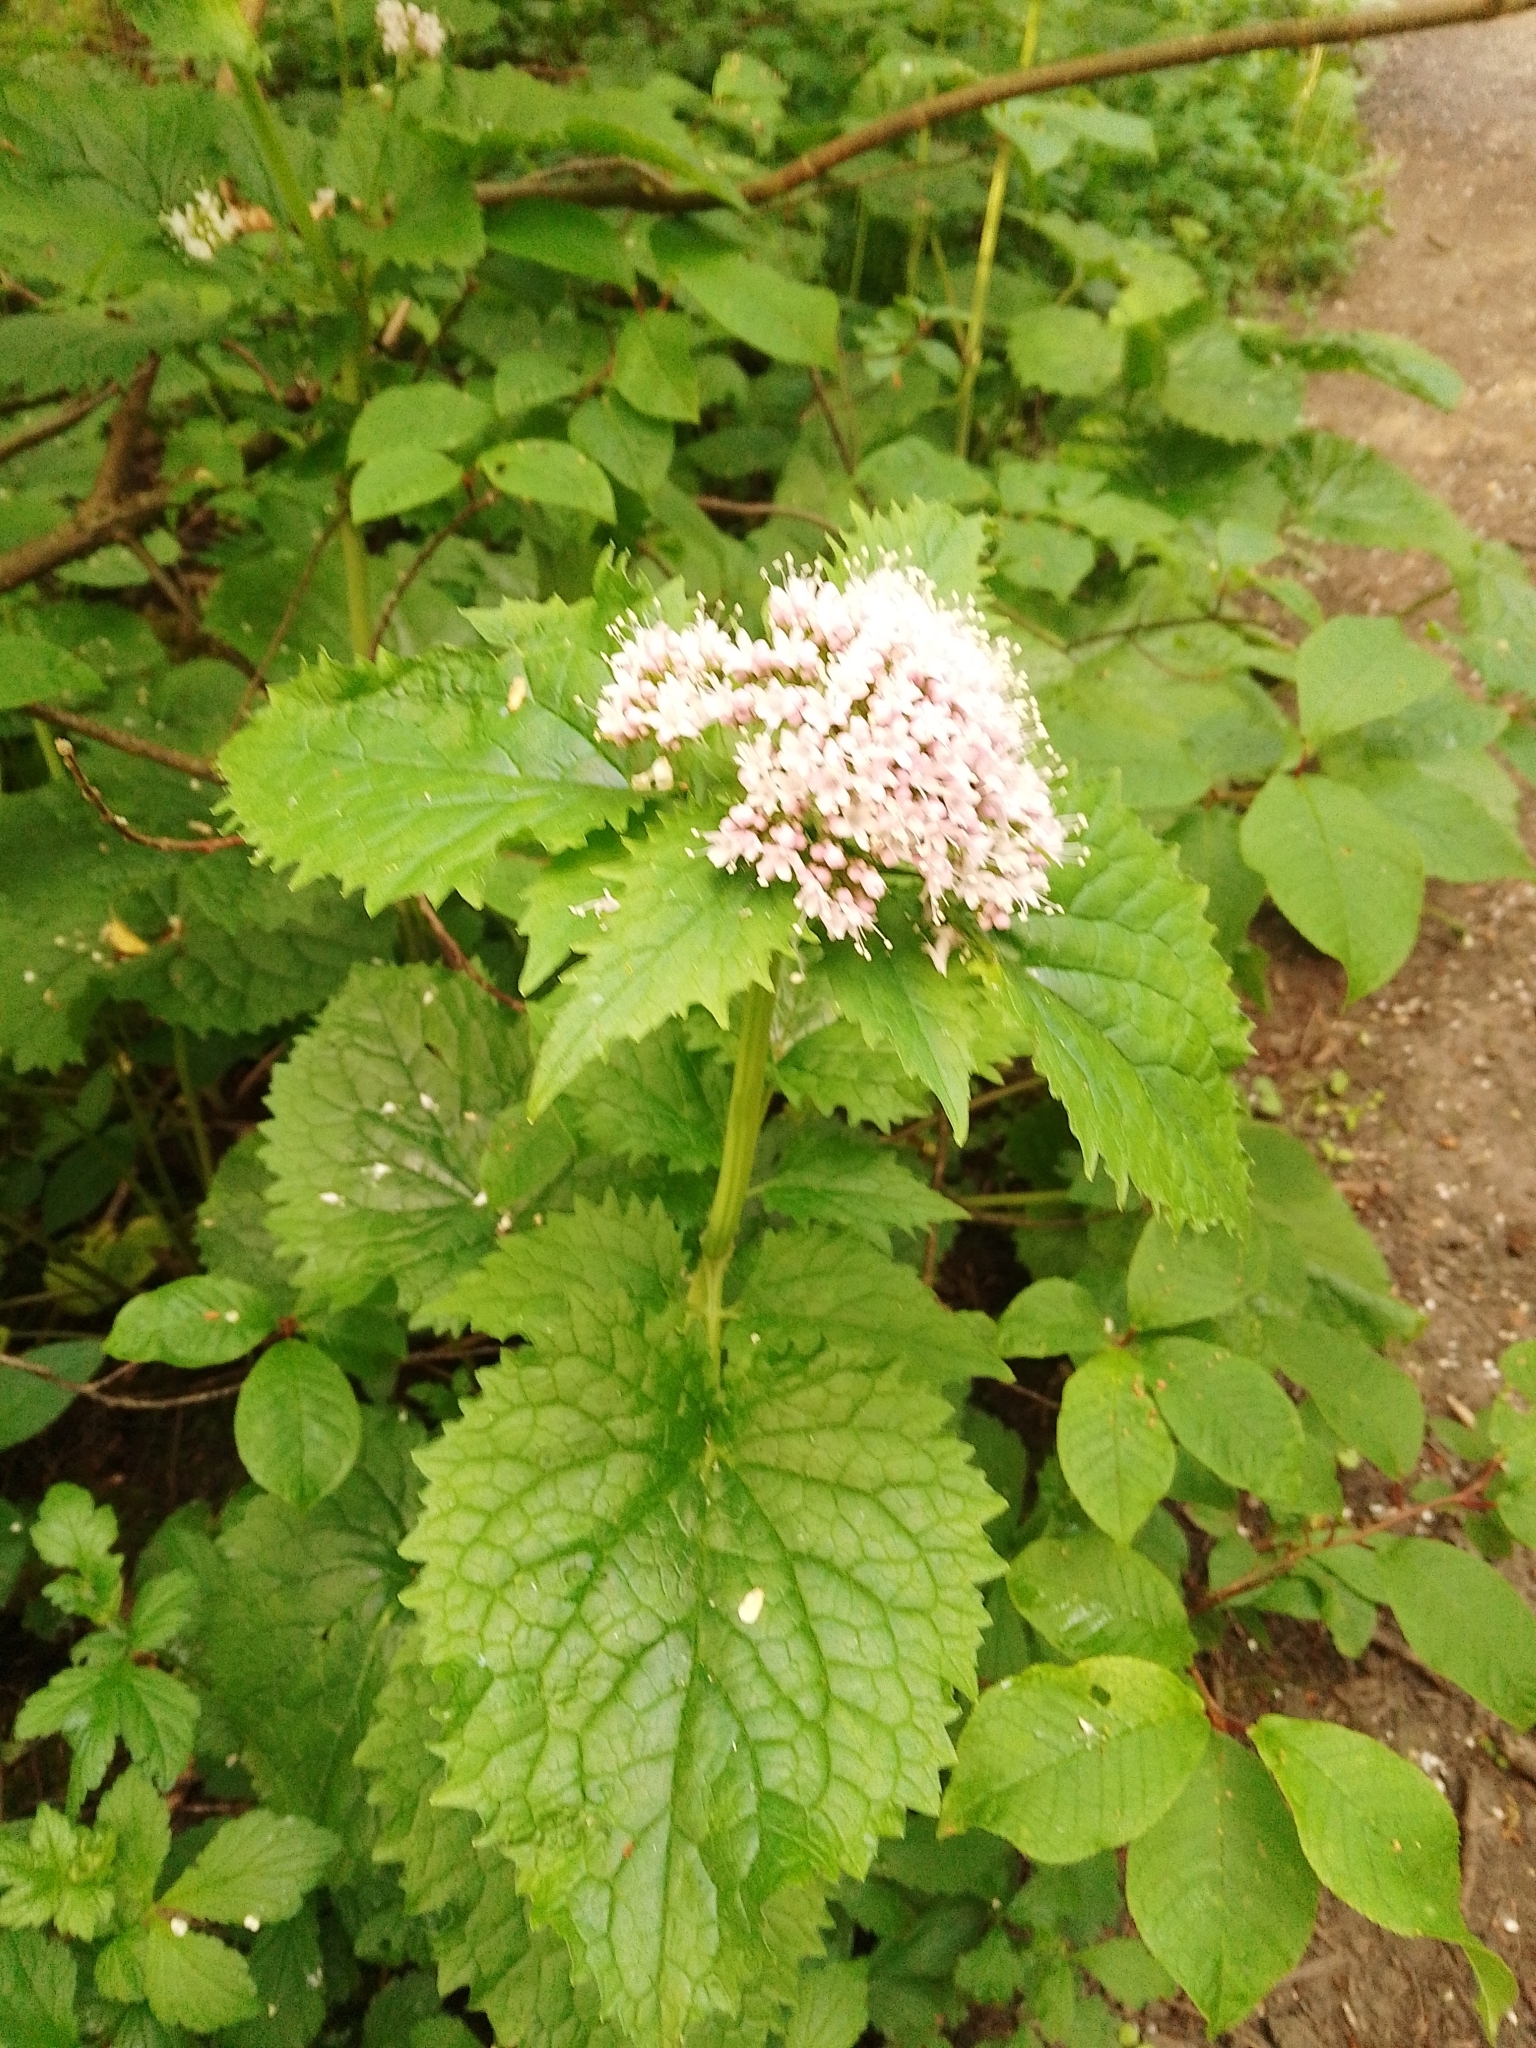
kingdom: Plantae
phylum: Tracheophyta
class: Magnoliopsida
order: Dipsacales
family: Caprifoliaceae
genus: Valeriana
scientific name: Valeriana pyrenaica
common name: Pyrenean valerian
